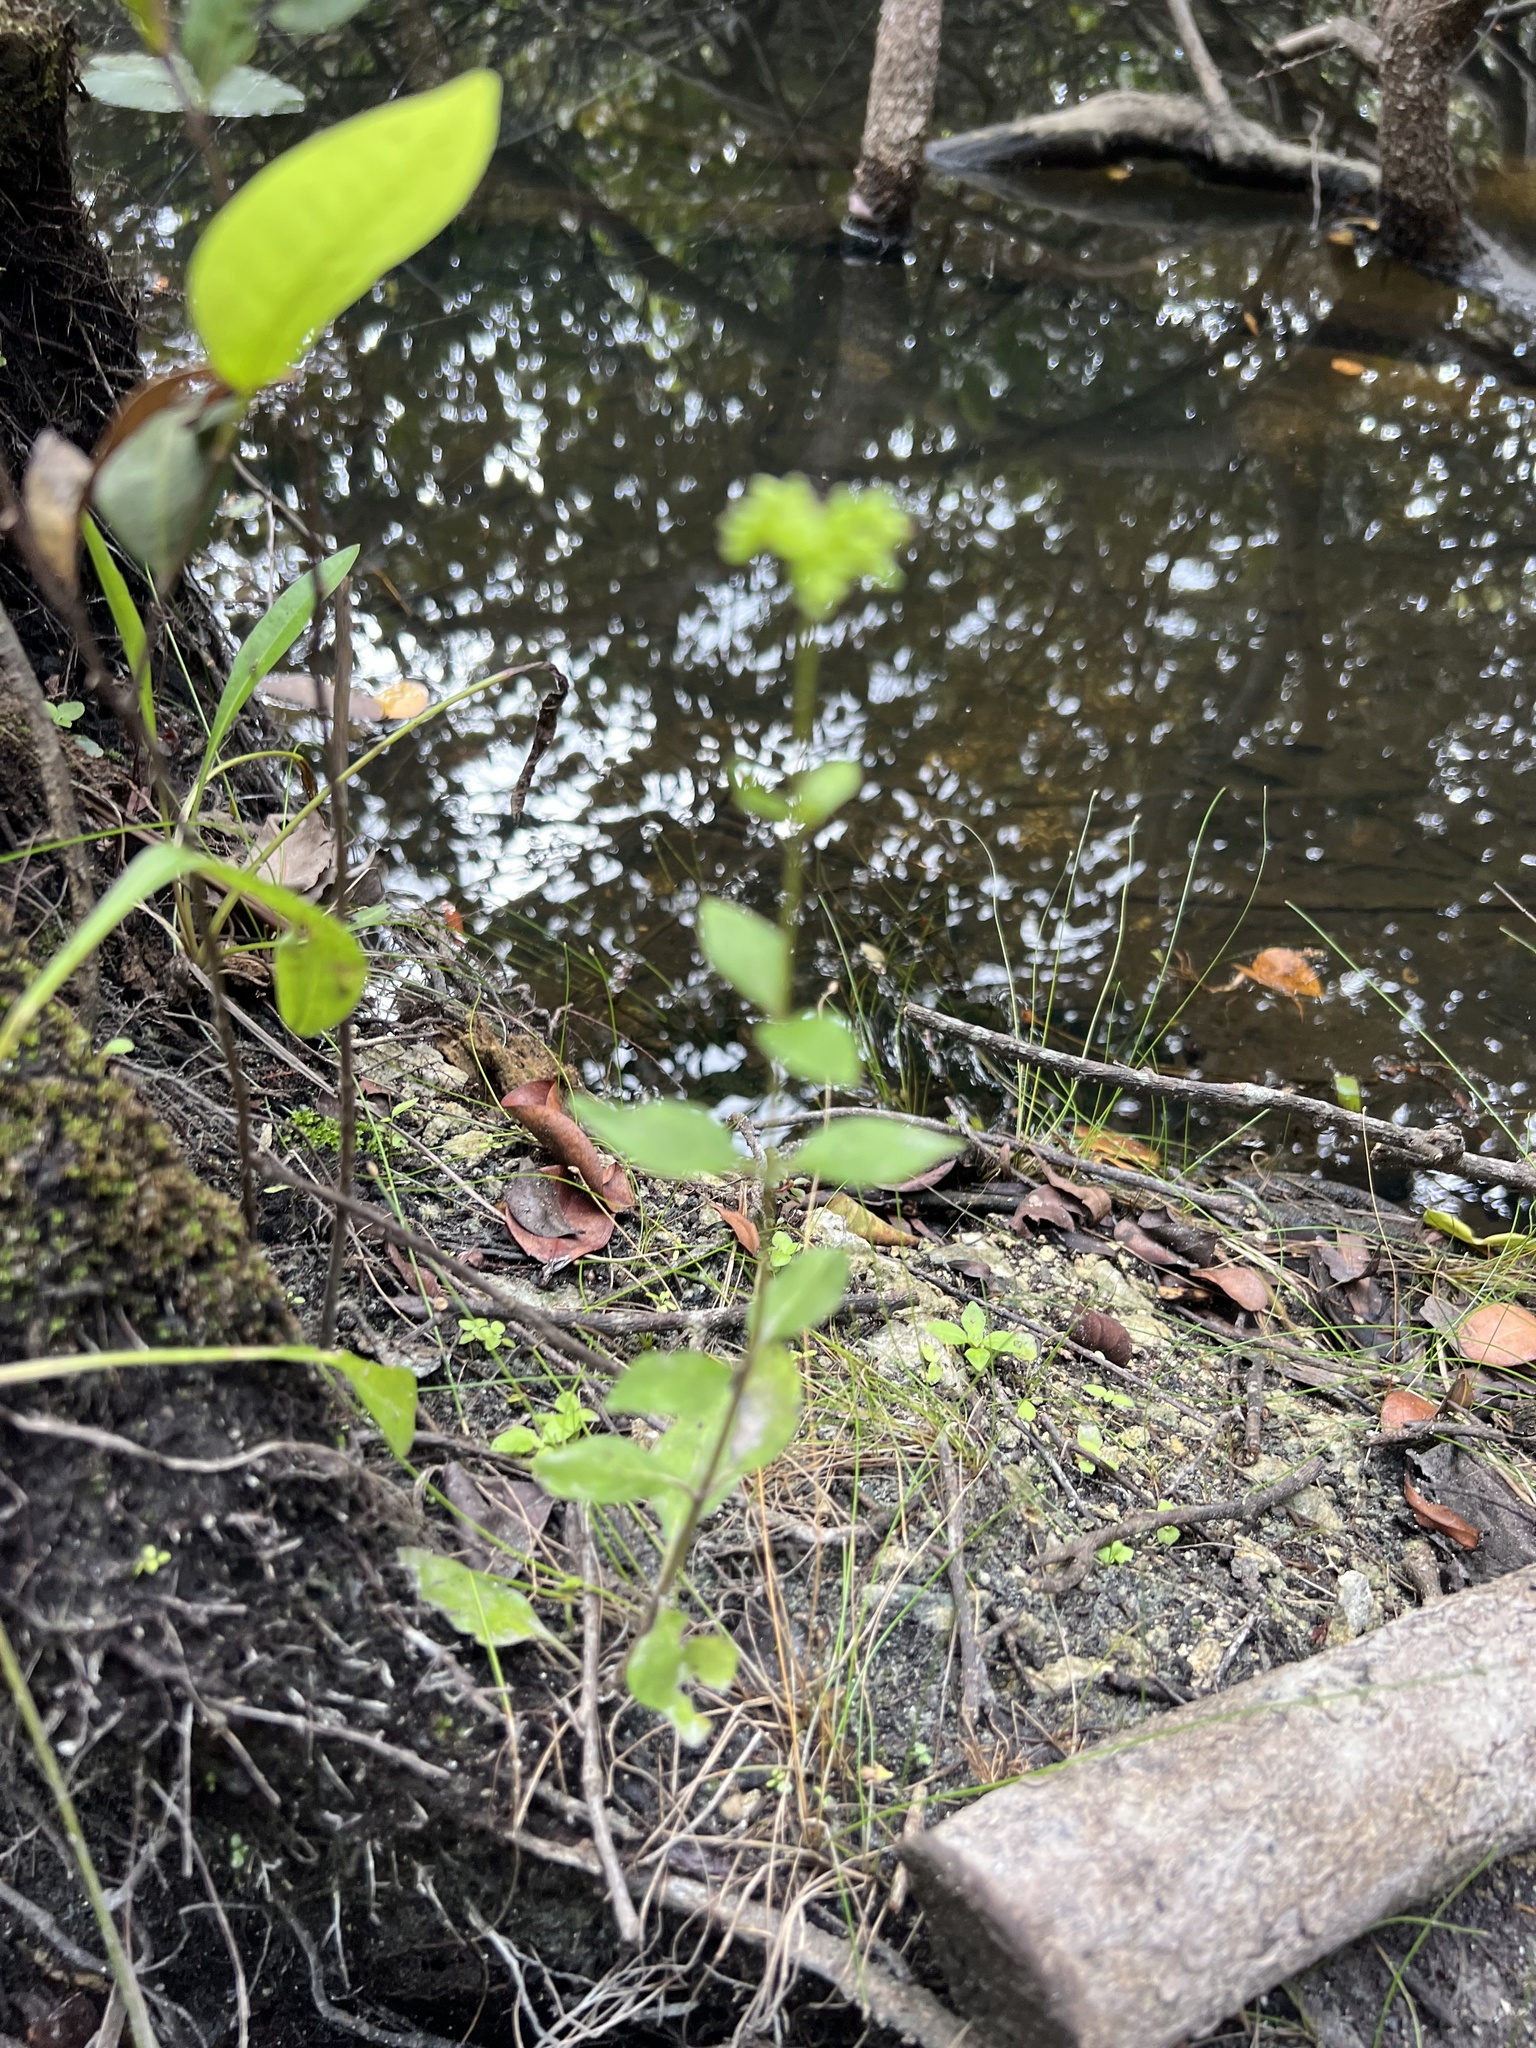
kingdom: Plantae
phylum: Tracheophyta
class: Magnoliopsida
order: Gentianales
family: Loganiaceae
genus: Mitreola
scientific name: Mitreola petiolata
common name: Lax hornpod
